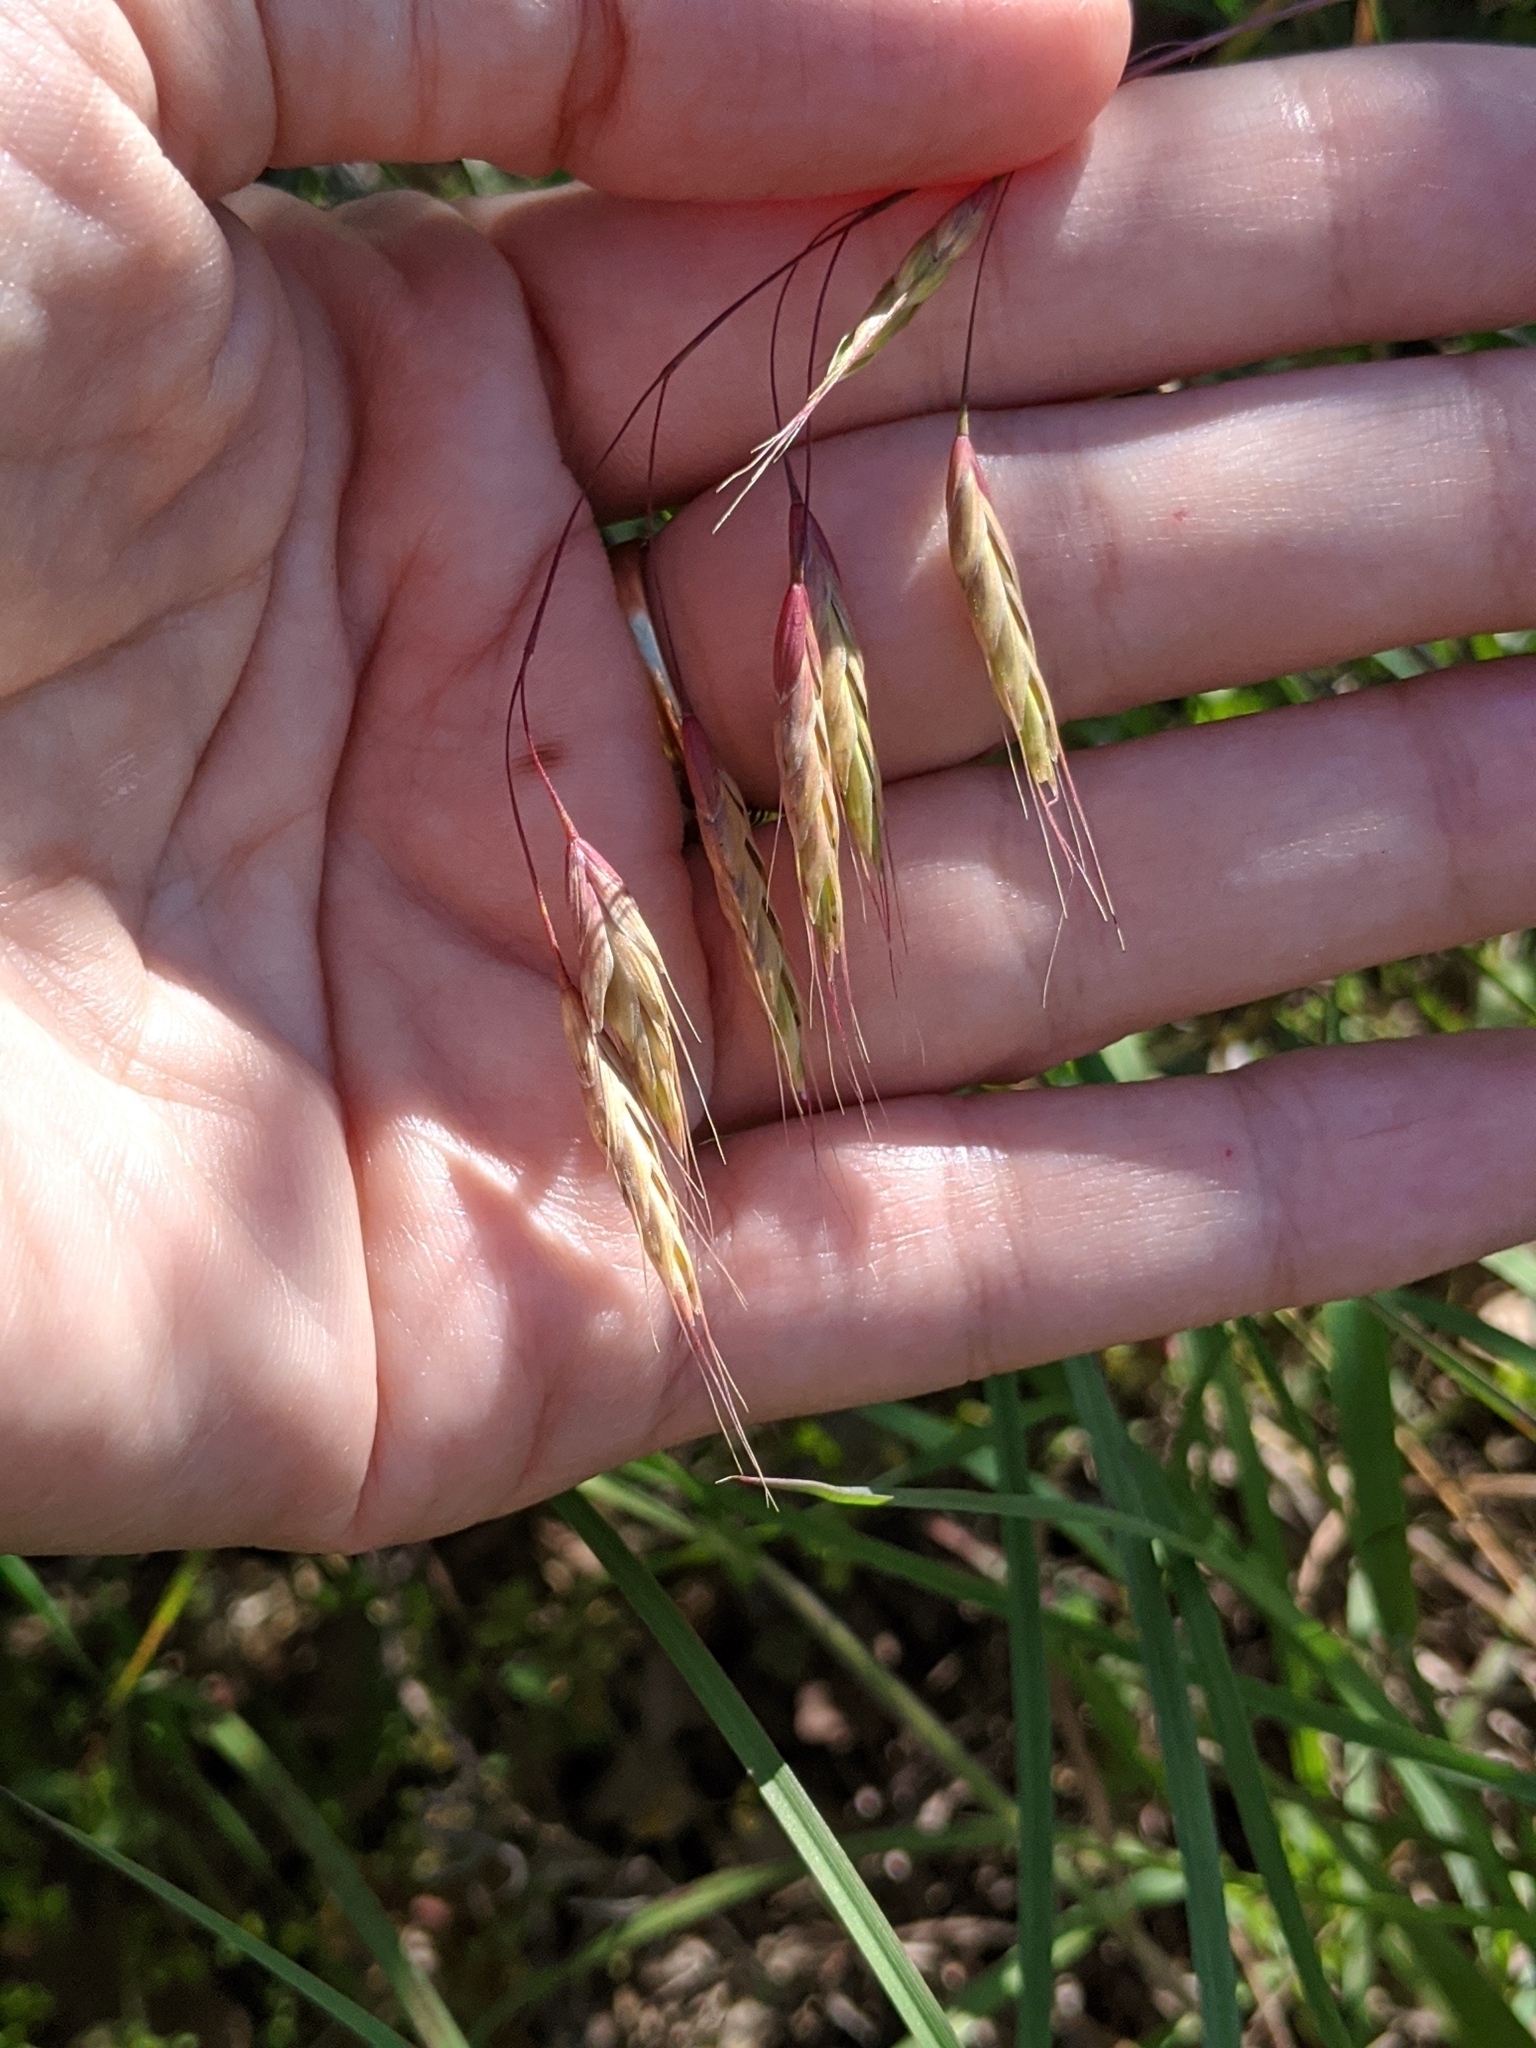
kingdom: Plantae
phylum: Tracheophyta
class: Liliopsida
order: Poales
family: Poaceae
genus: Bromus
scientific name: Bromus japonicus
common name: Japanese brome
